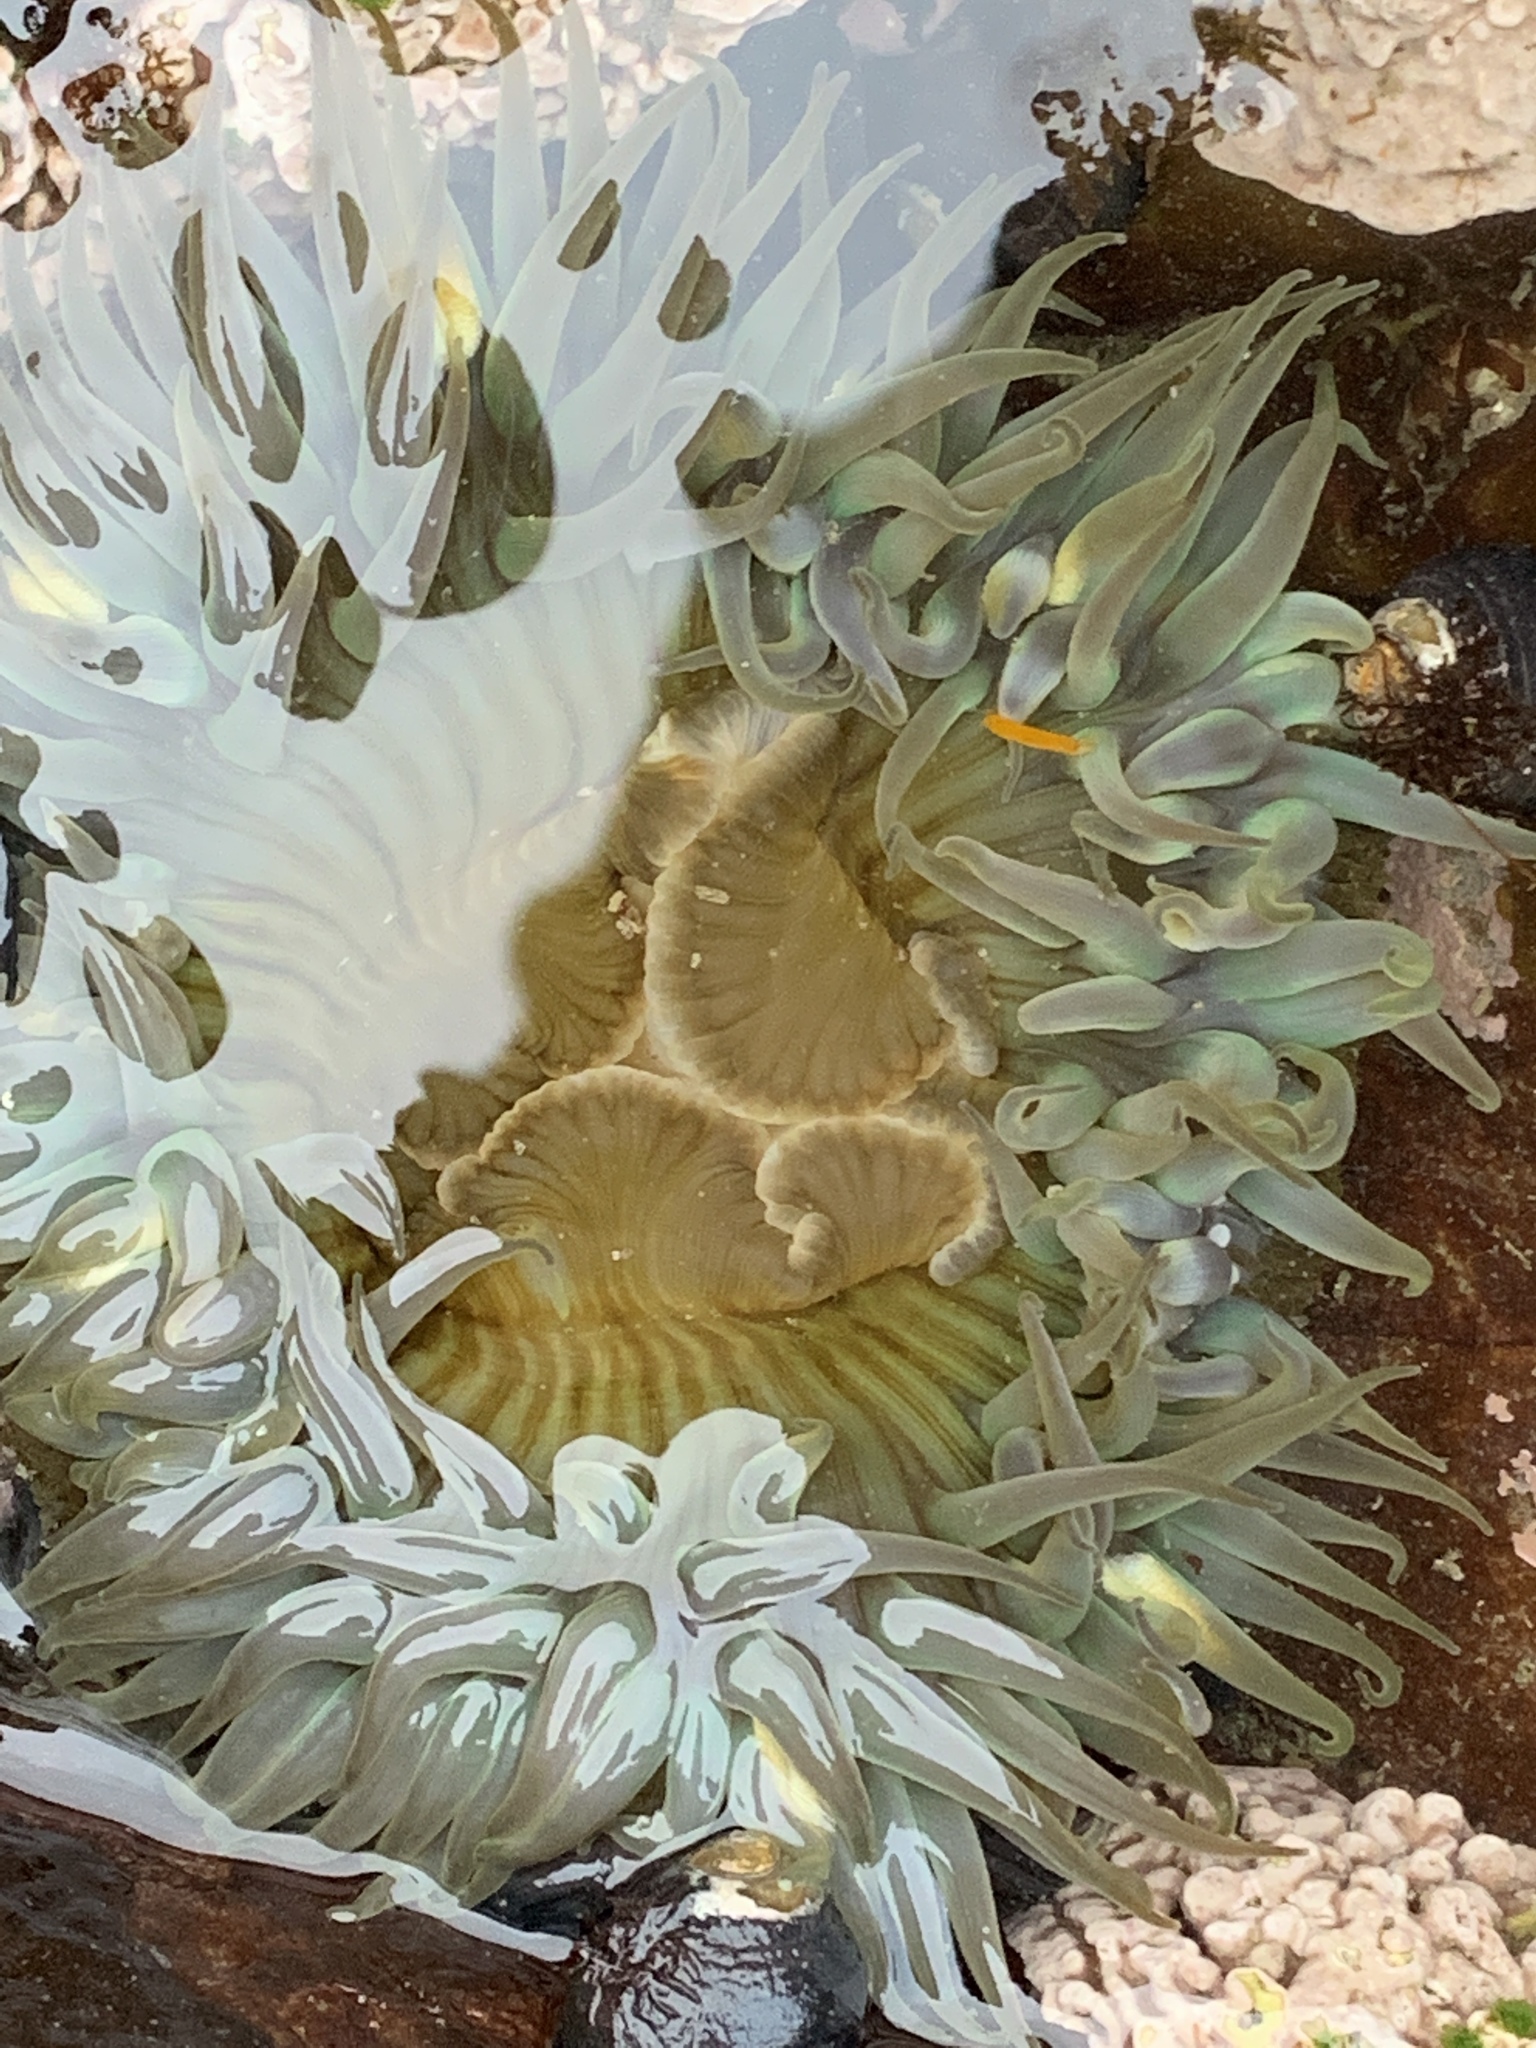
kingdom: Animalia
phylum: Cnidaria
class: Anthozoa
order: Actiniaria
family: Actiniidae
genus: Anthopleura
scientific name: Anthopleura sola
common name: Sun anemone
